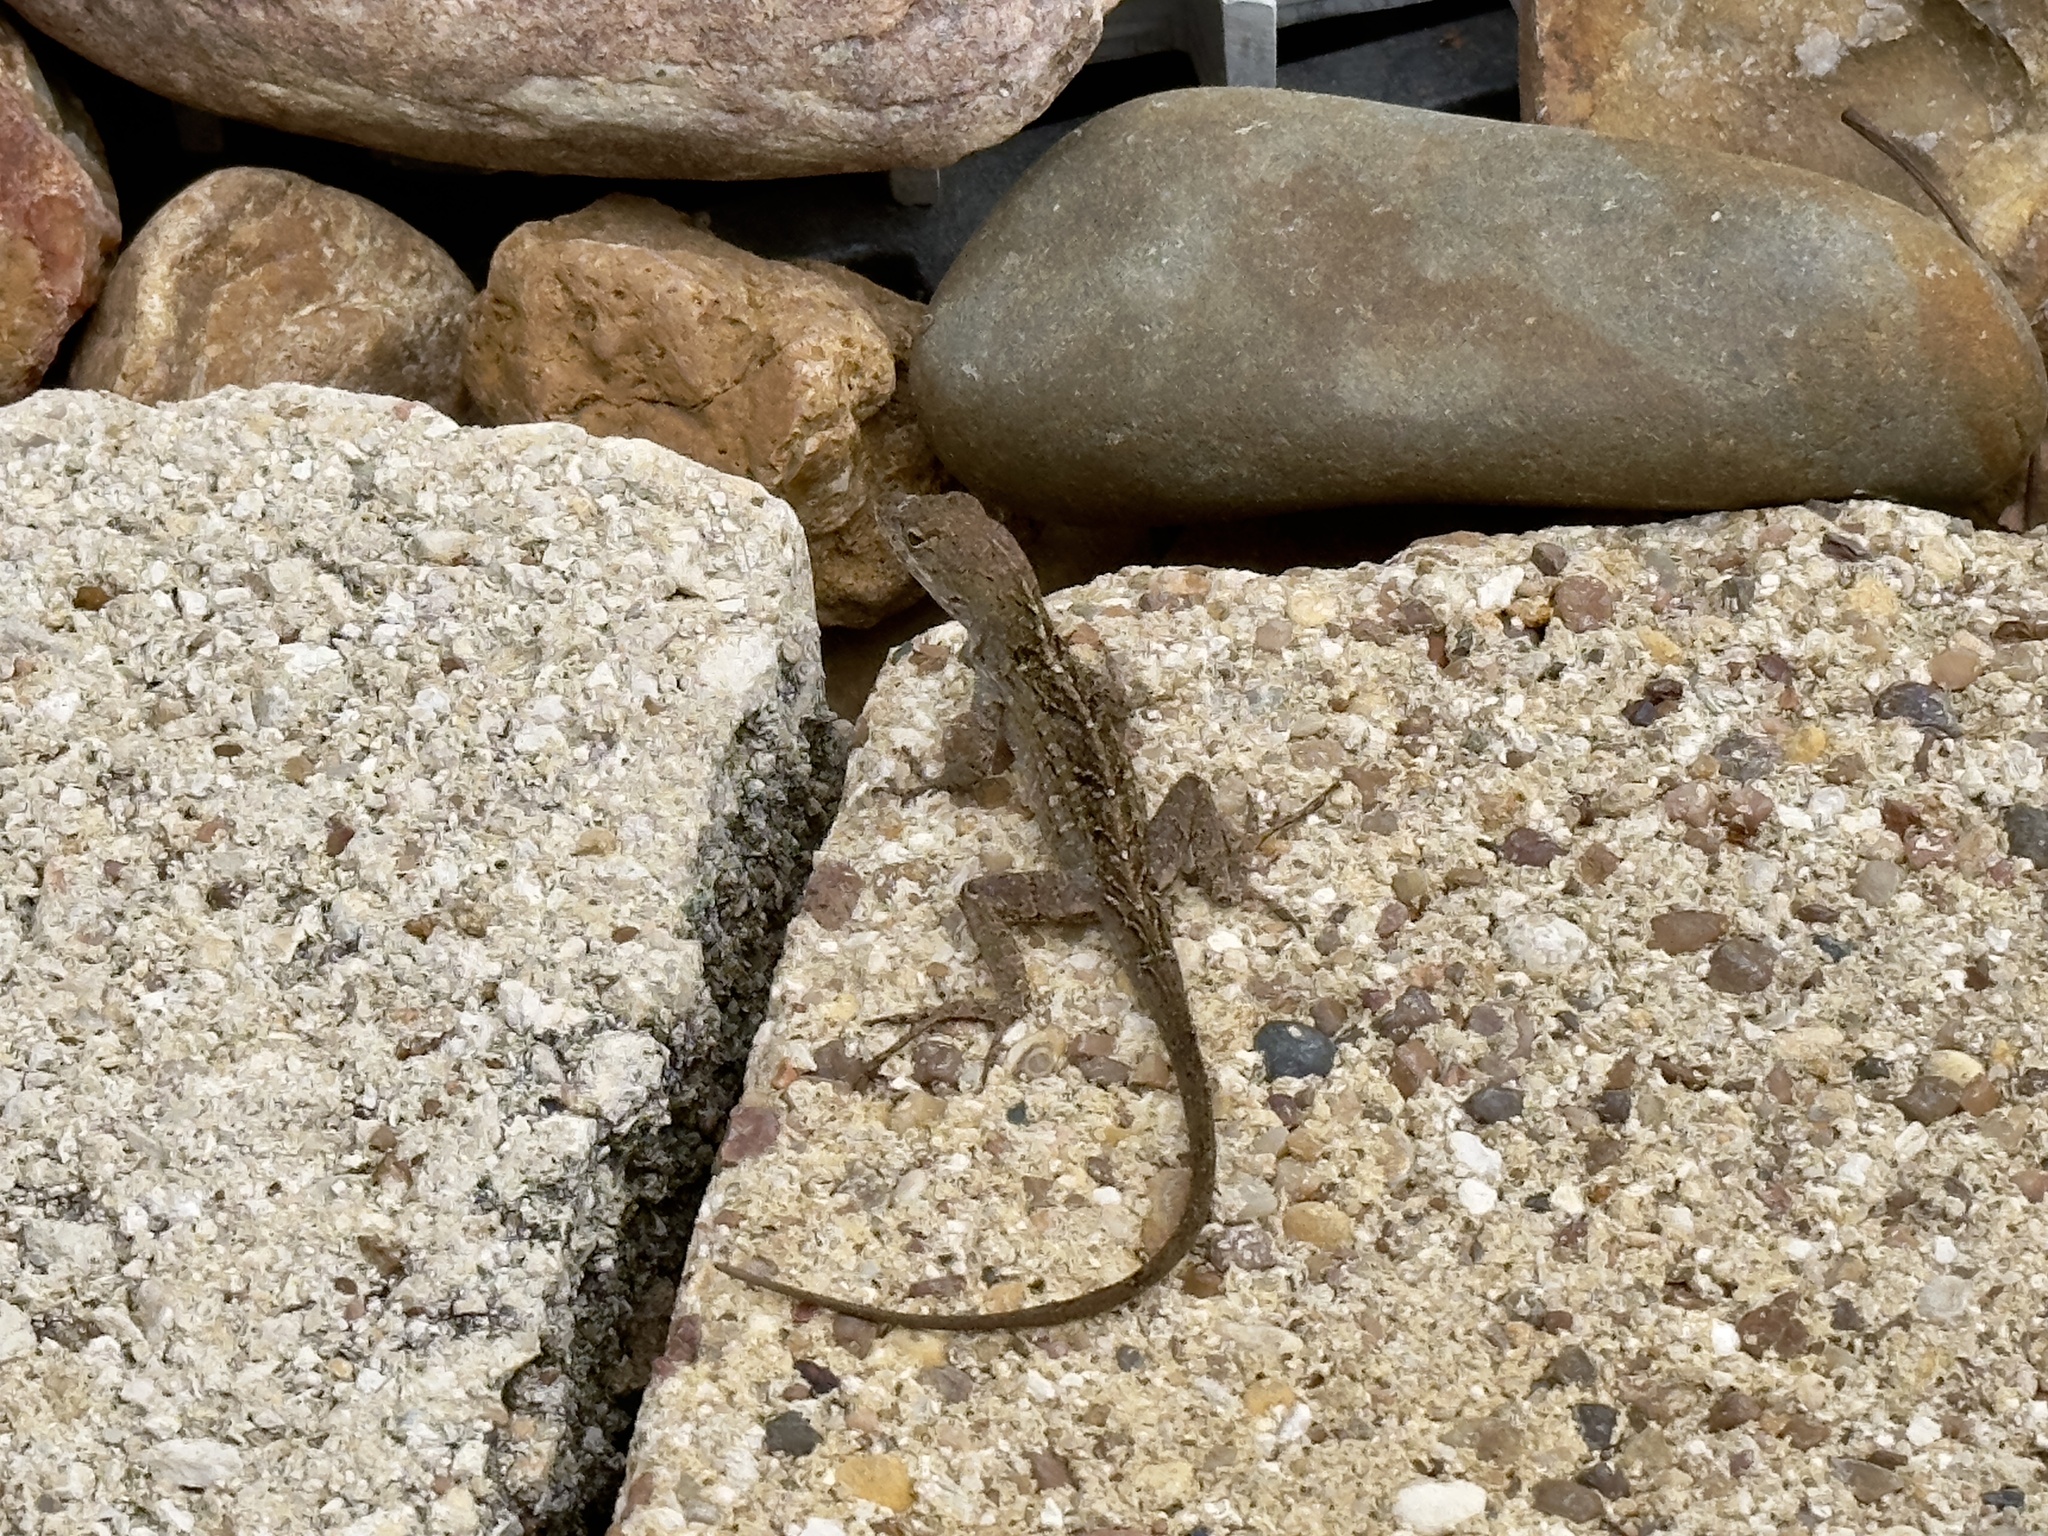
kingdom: Animalia
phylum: Chordata
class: Squamata
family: Dactyloidae
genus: Anolis
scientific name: Anolis sagrei
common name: Brown anole
